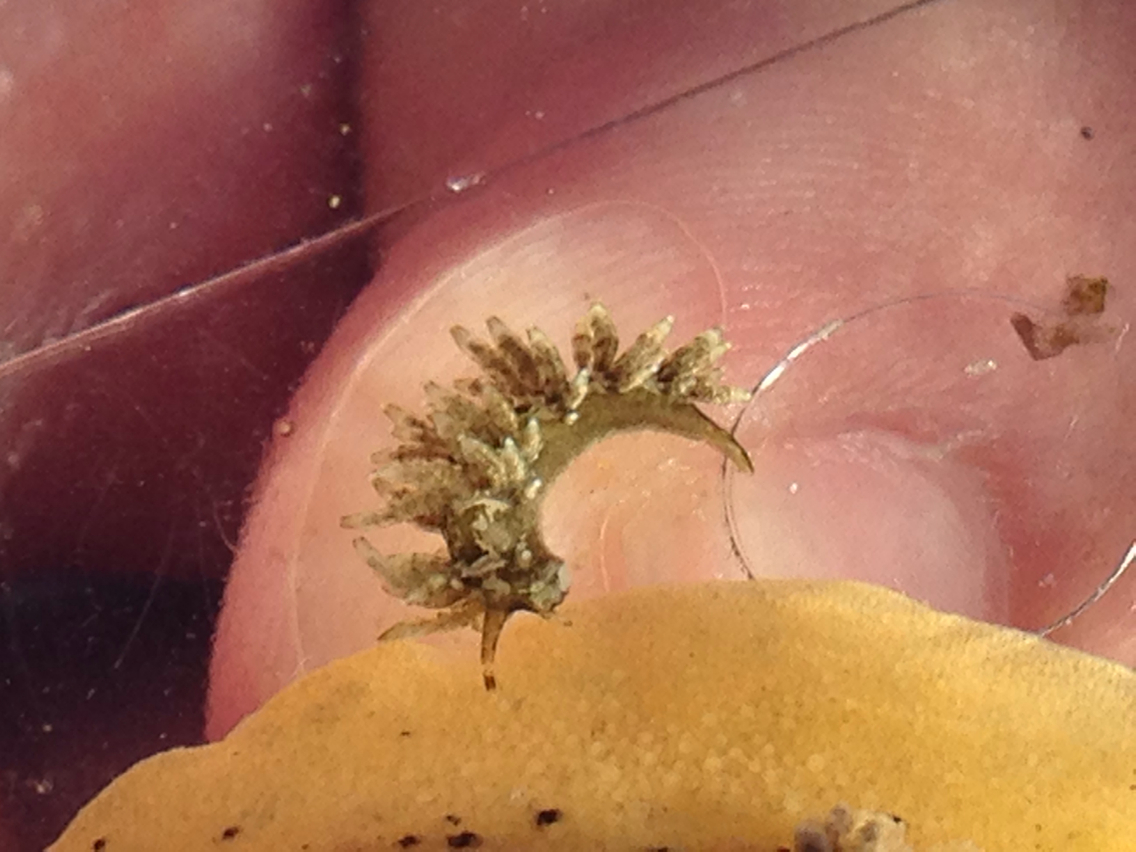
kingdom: Animalia
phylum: Mollusca
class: Gastropoda
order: Nudibranchia
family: Eubranchidae
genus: Eubranchus
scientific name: Eubranchus rustyus
